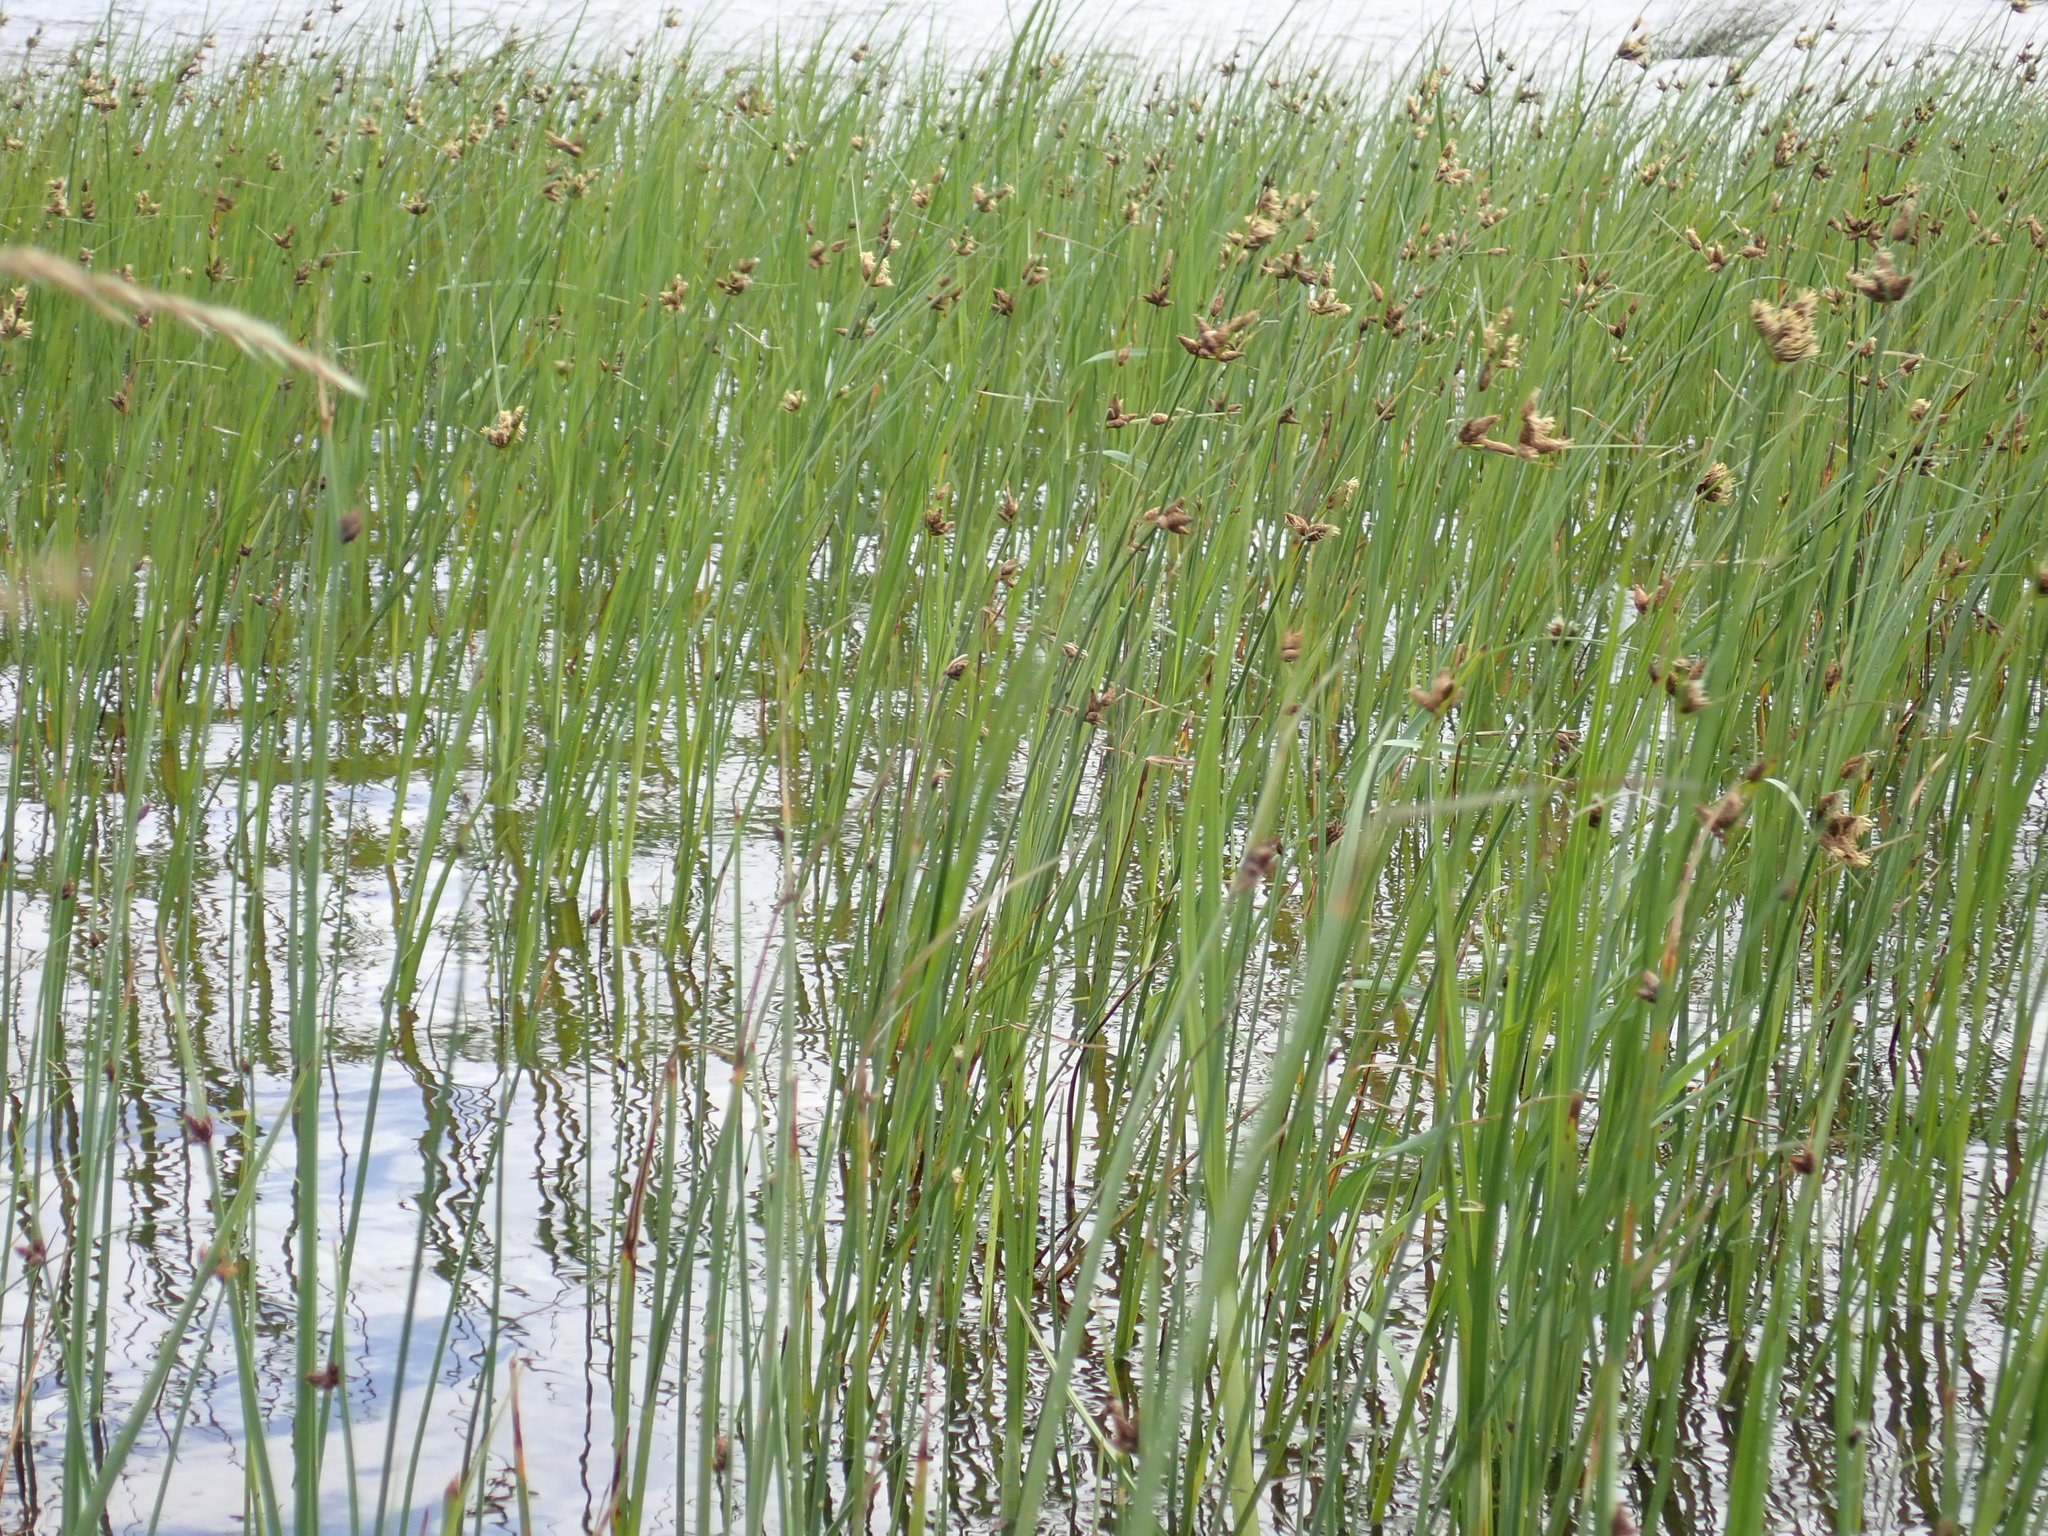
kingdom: Plantae
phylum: Tracheophyta
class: Liliopsida
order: Poales
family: Cyperaceae
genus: Bolboschoenus
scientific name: Bolboschoenus caldwellii
